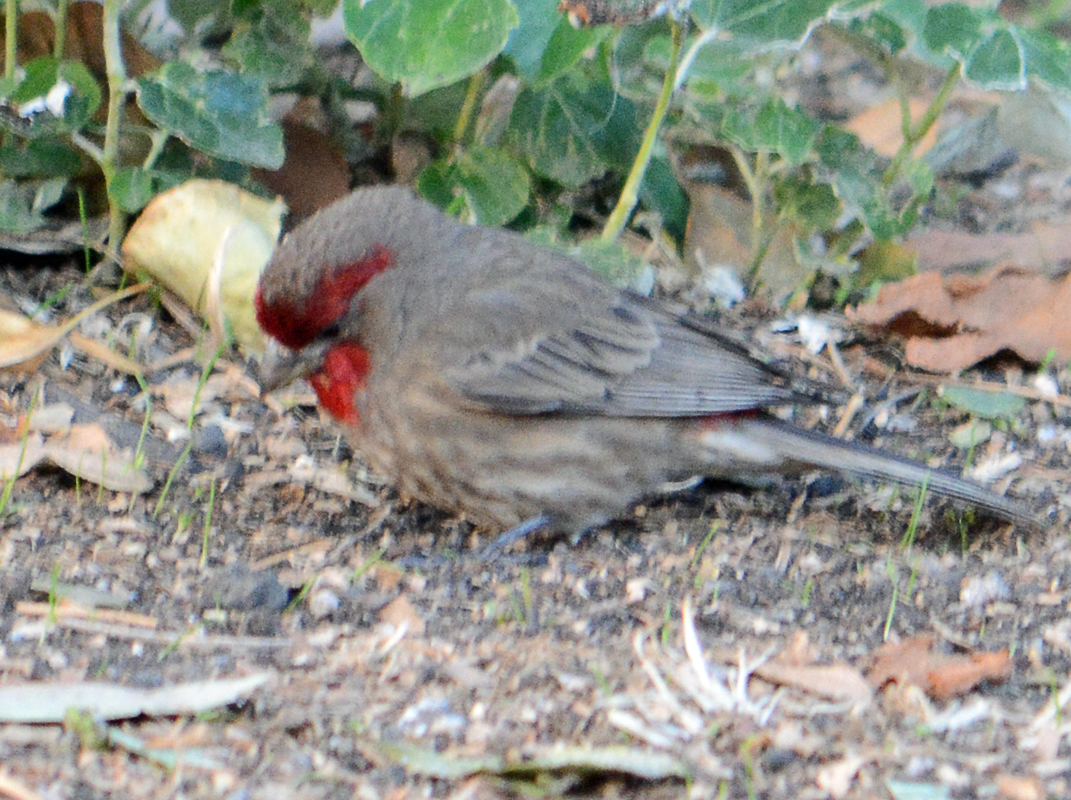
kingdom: Animalia
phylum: Chordata
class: Aves
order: Passeriformes
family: Fringillidae
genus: Haemorhous
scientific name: Haemorhous mexicanus
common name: House finch
